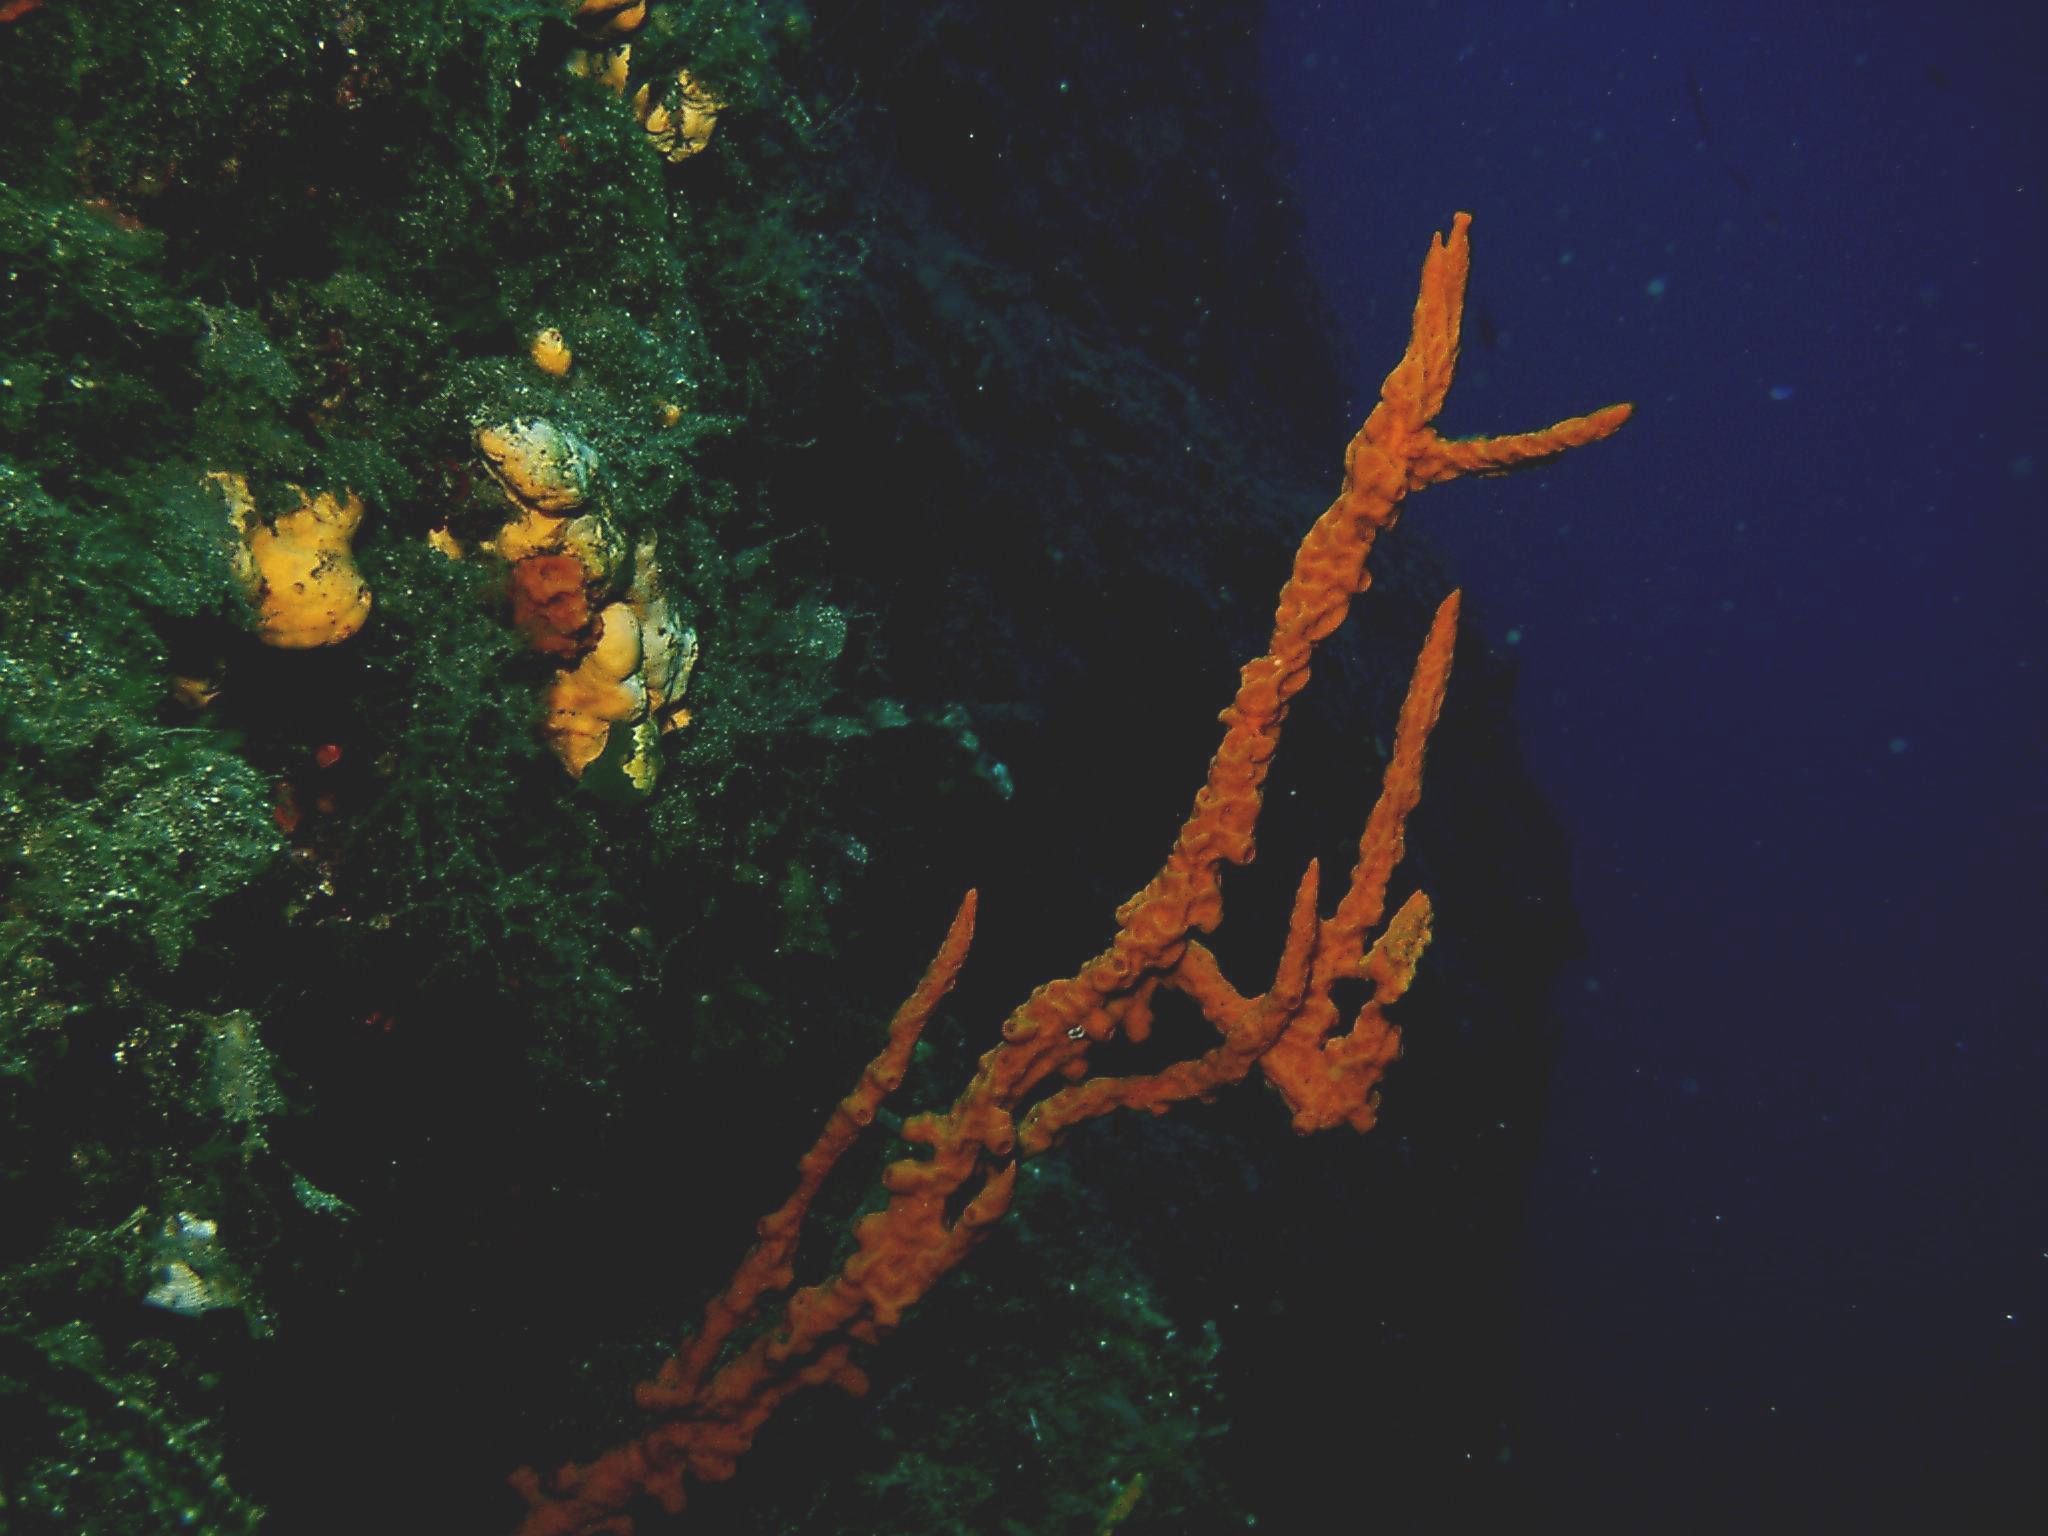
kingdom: Animalia
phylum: Porifera
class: Demospongiae
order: Axinellida
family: Axinellidae
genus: Axinella
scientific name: Axinella cannabina
